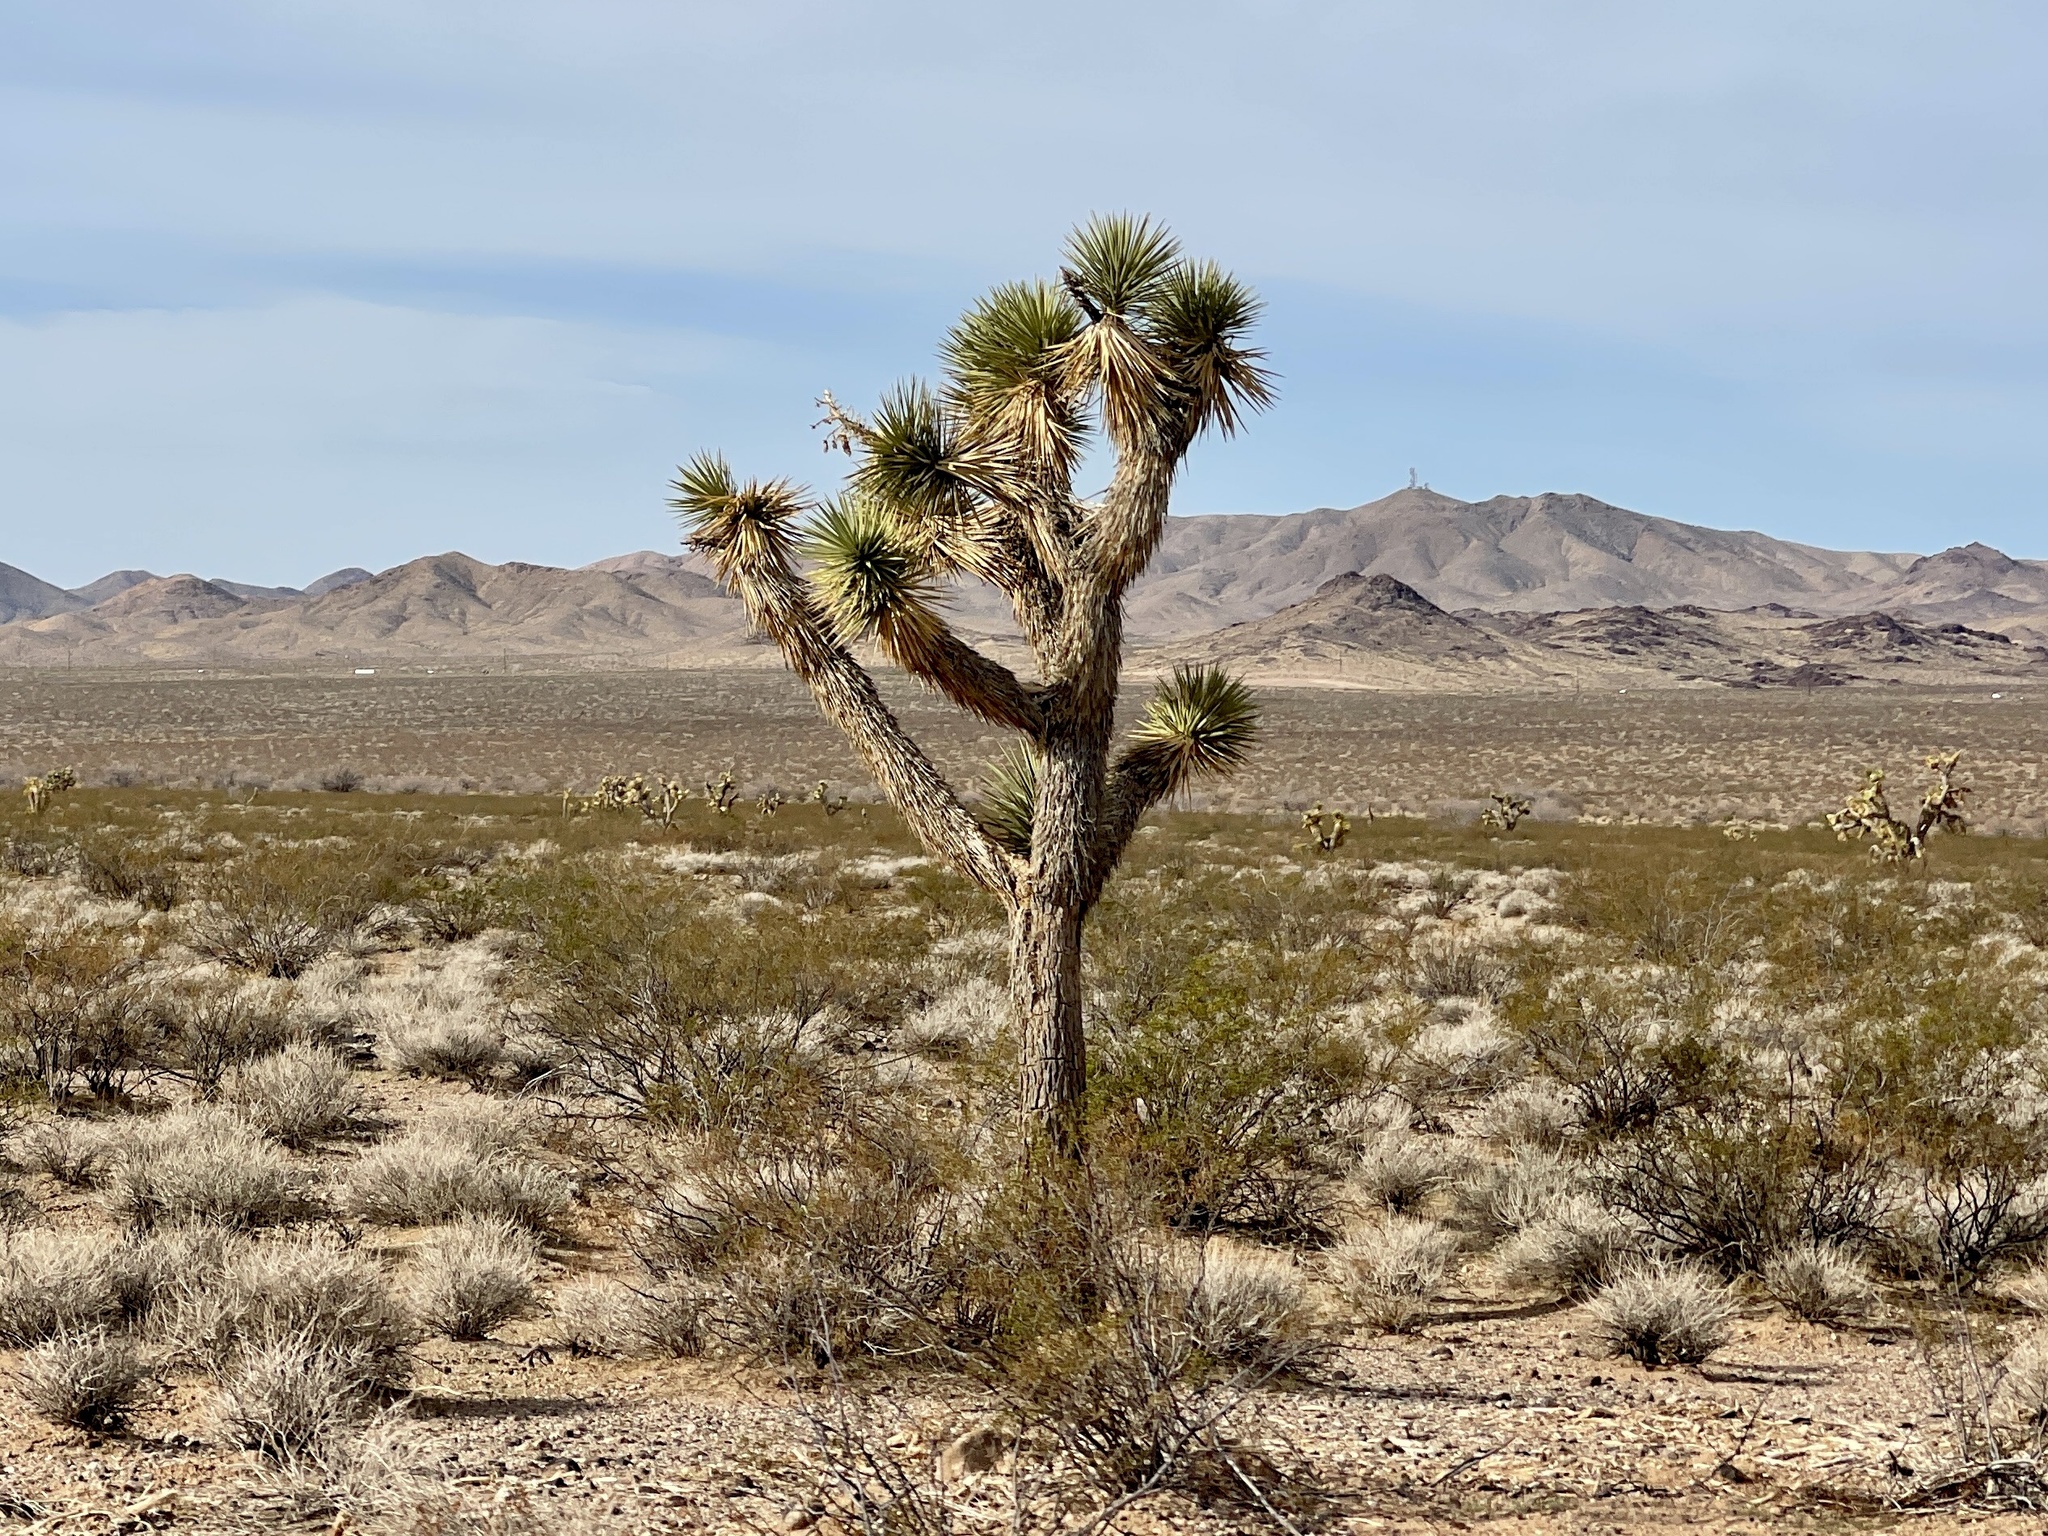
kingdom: Plantae
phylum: Tracheophyta
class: Liliopsida
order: Asparagales
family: Asparagaceae
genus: Yucca
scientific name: Yucca brevifolia
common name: Joshua tree
